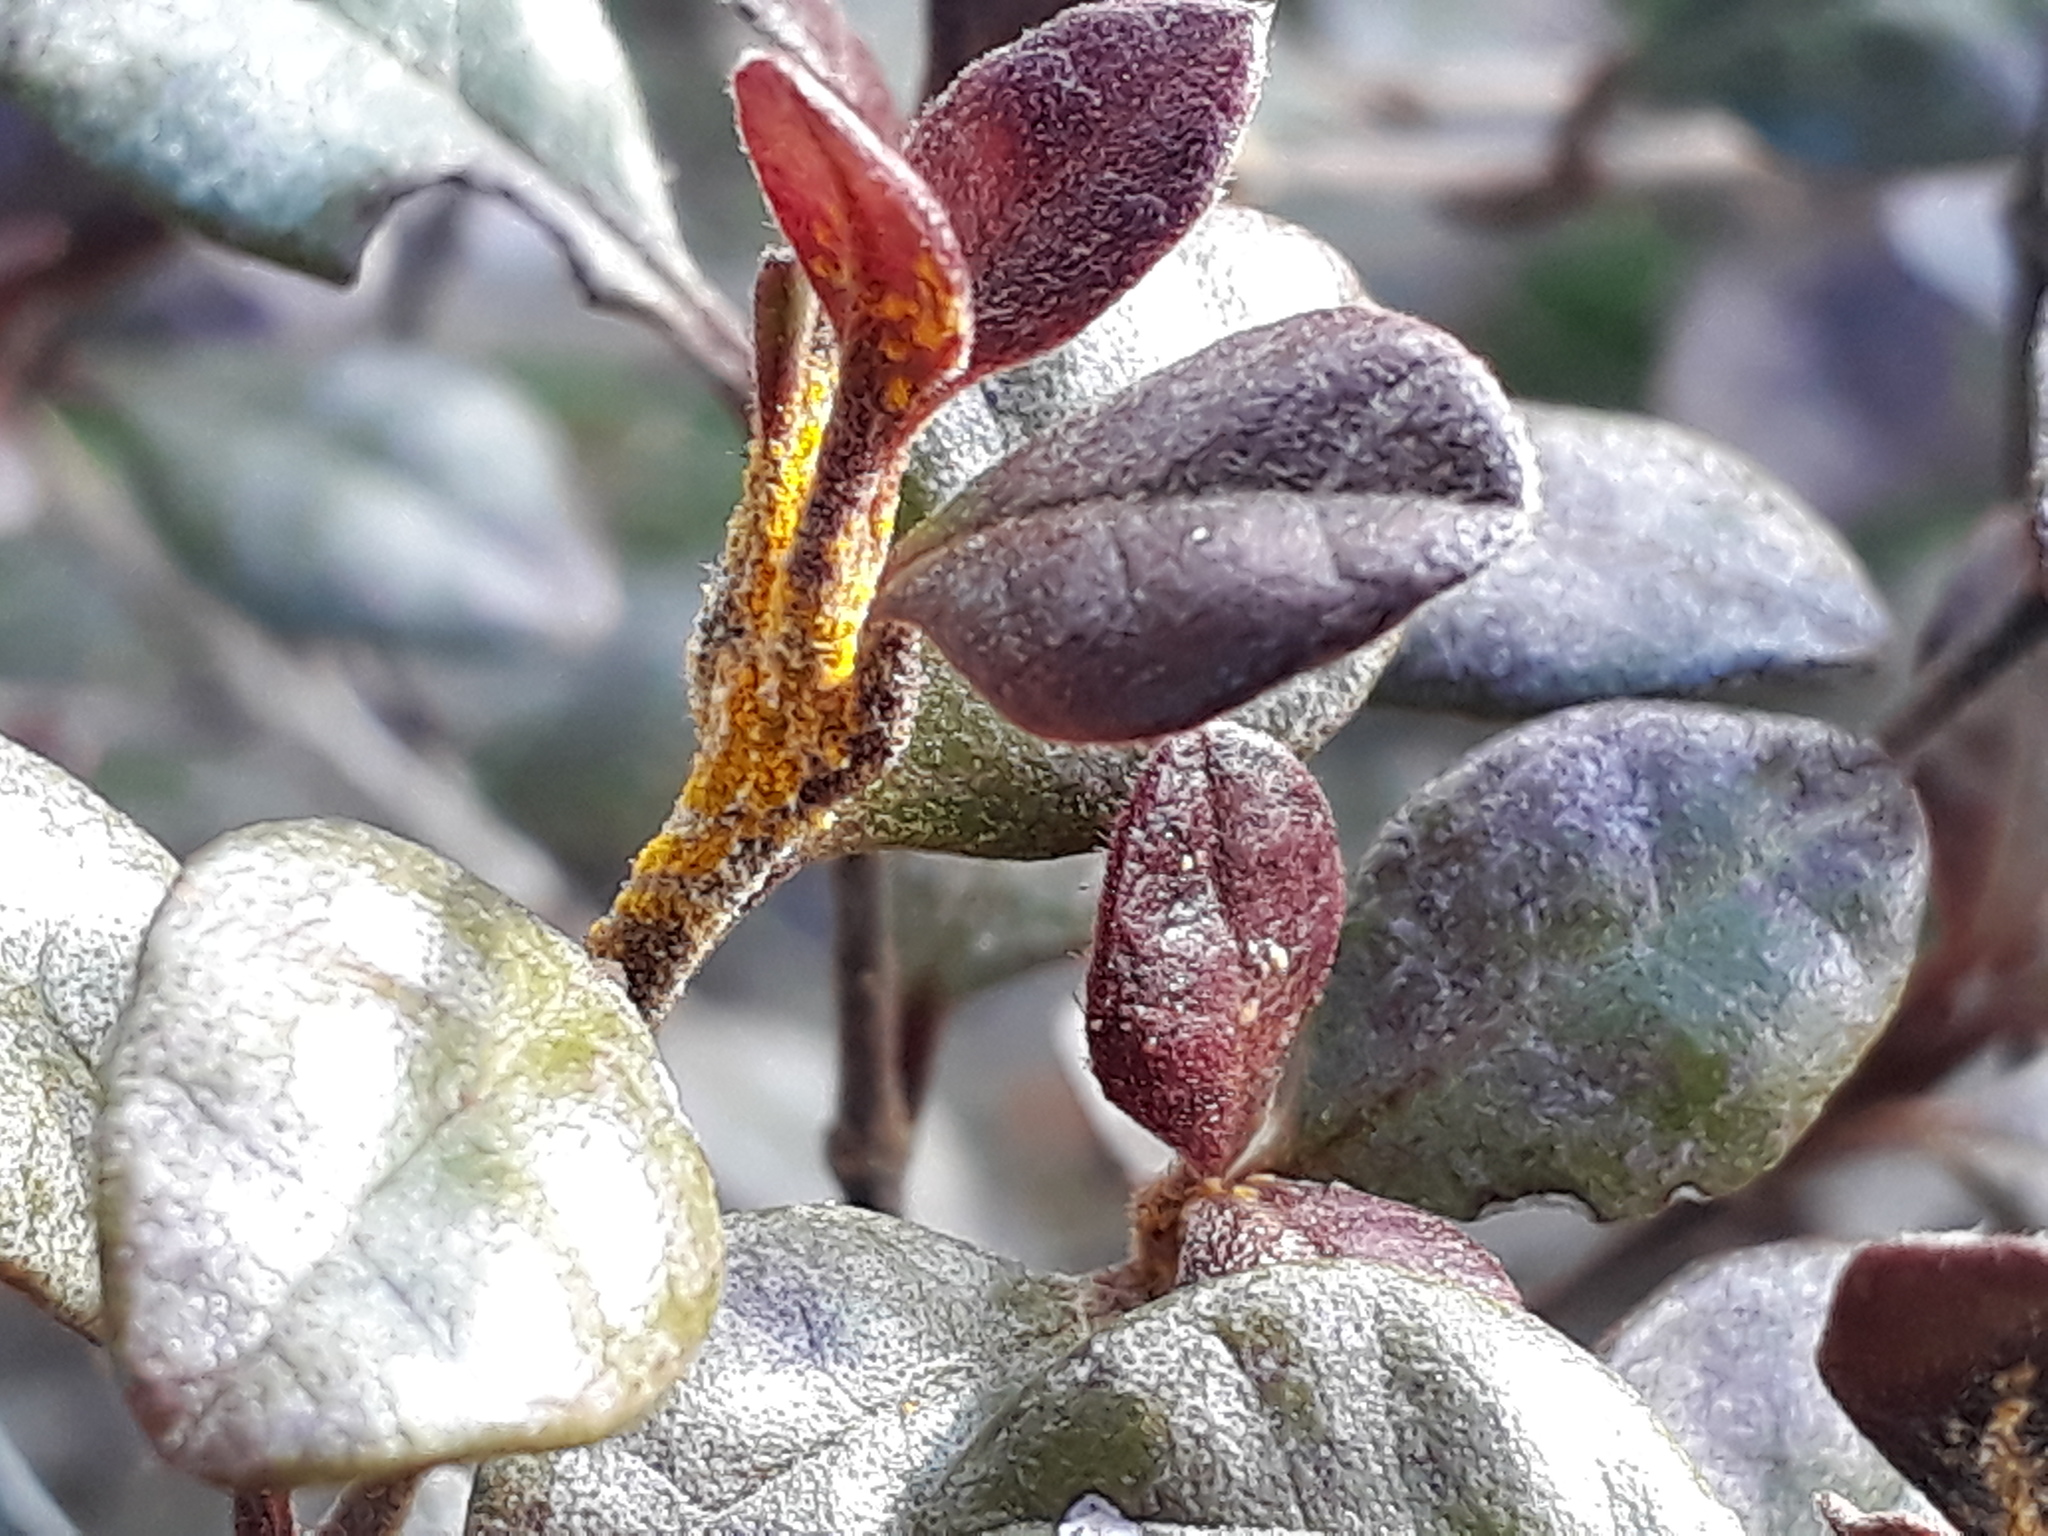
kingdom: Fungi
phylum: Basidiomycota
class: Pucciniomycetes
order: Pucciniales
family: Sphaerophragmiaceae
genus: Austropuccinia
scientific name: Austropuccinia psidii
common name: Myrtle rust
